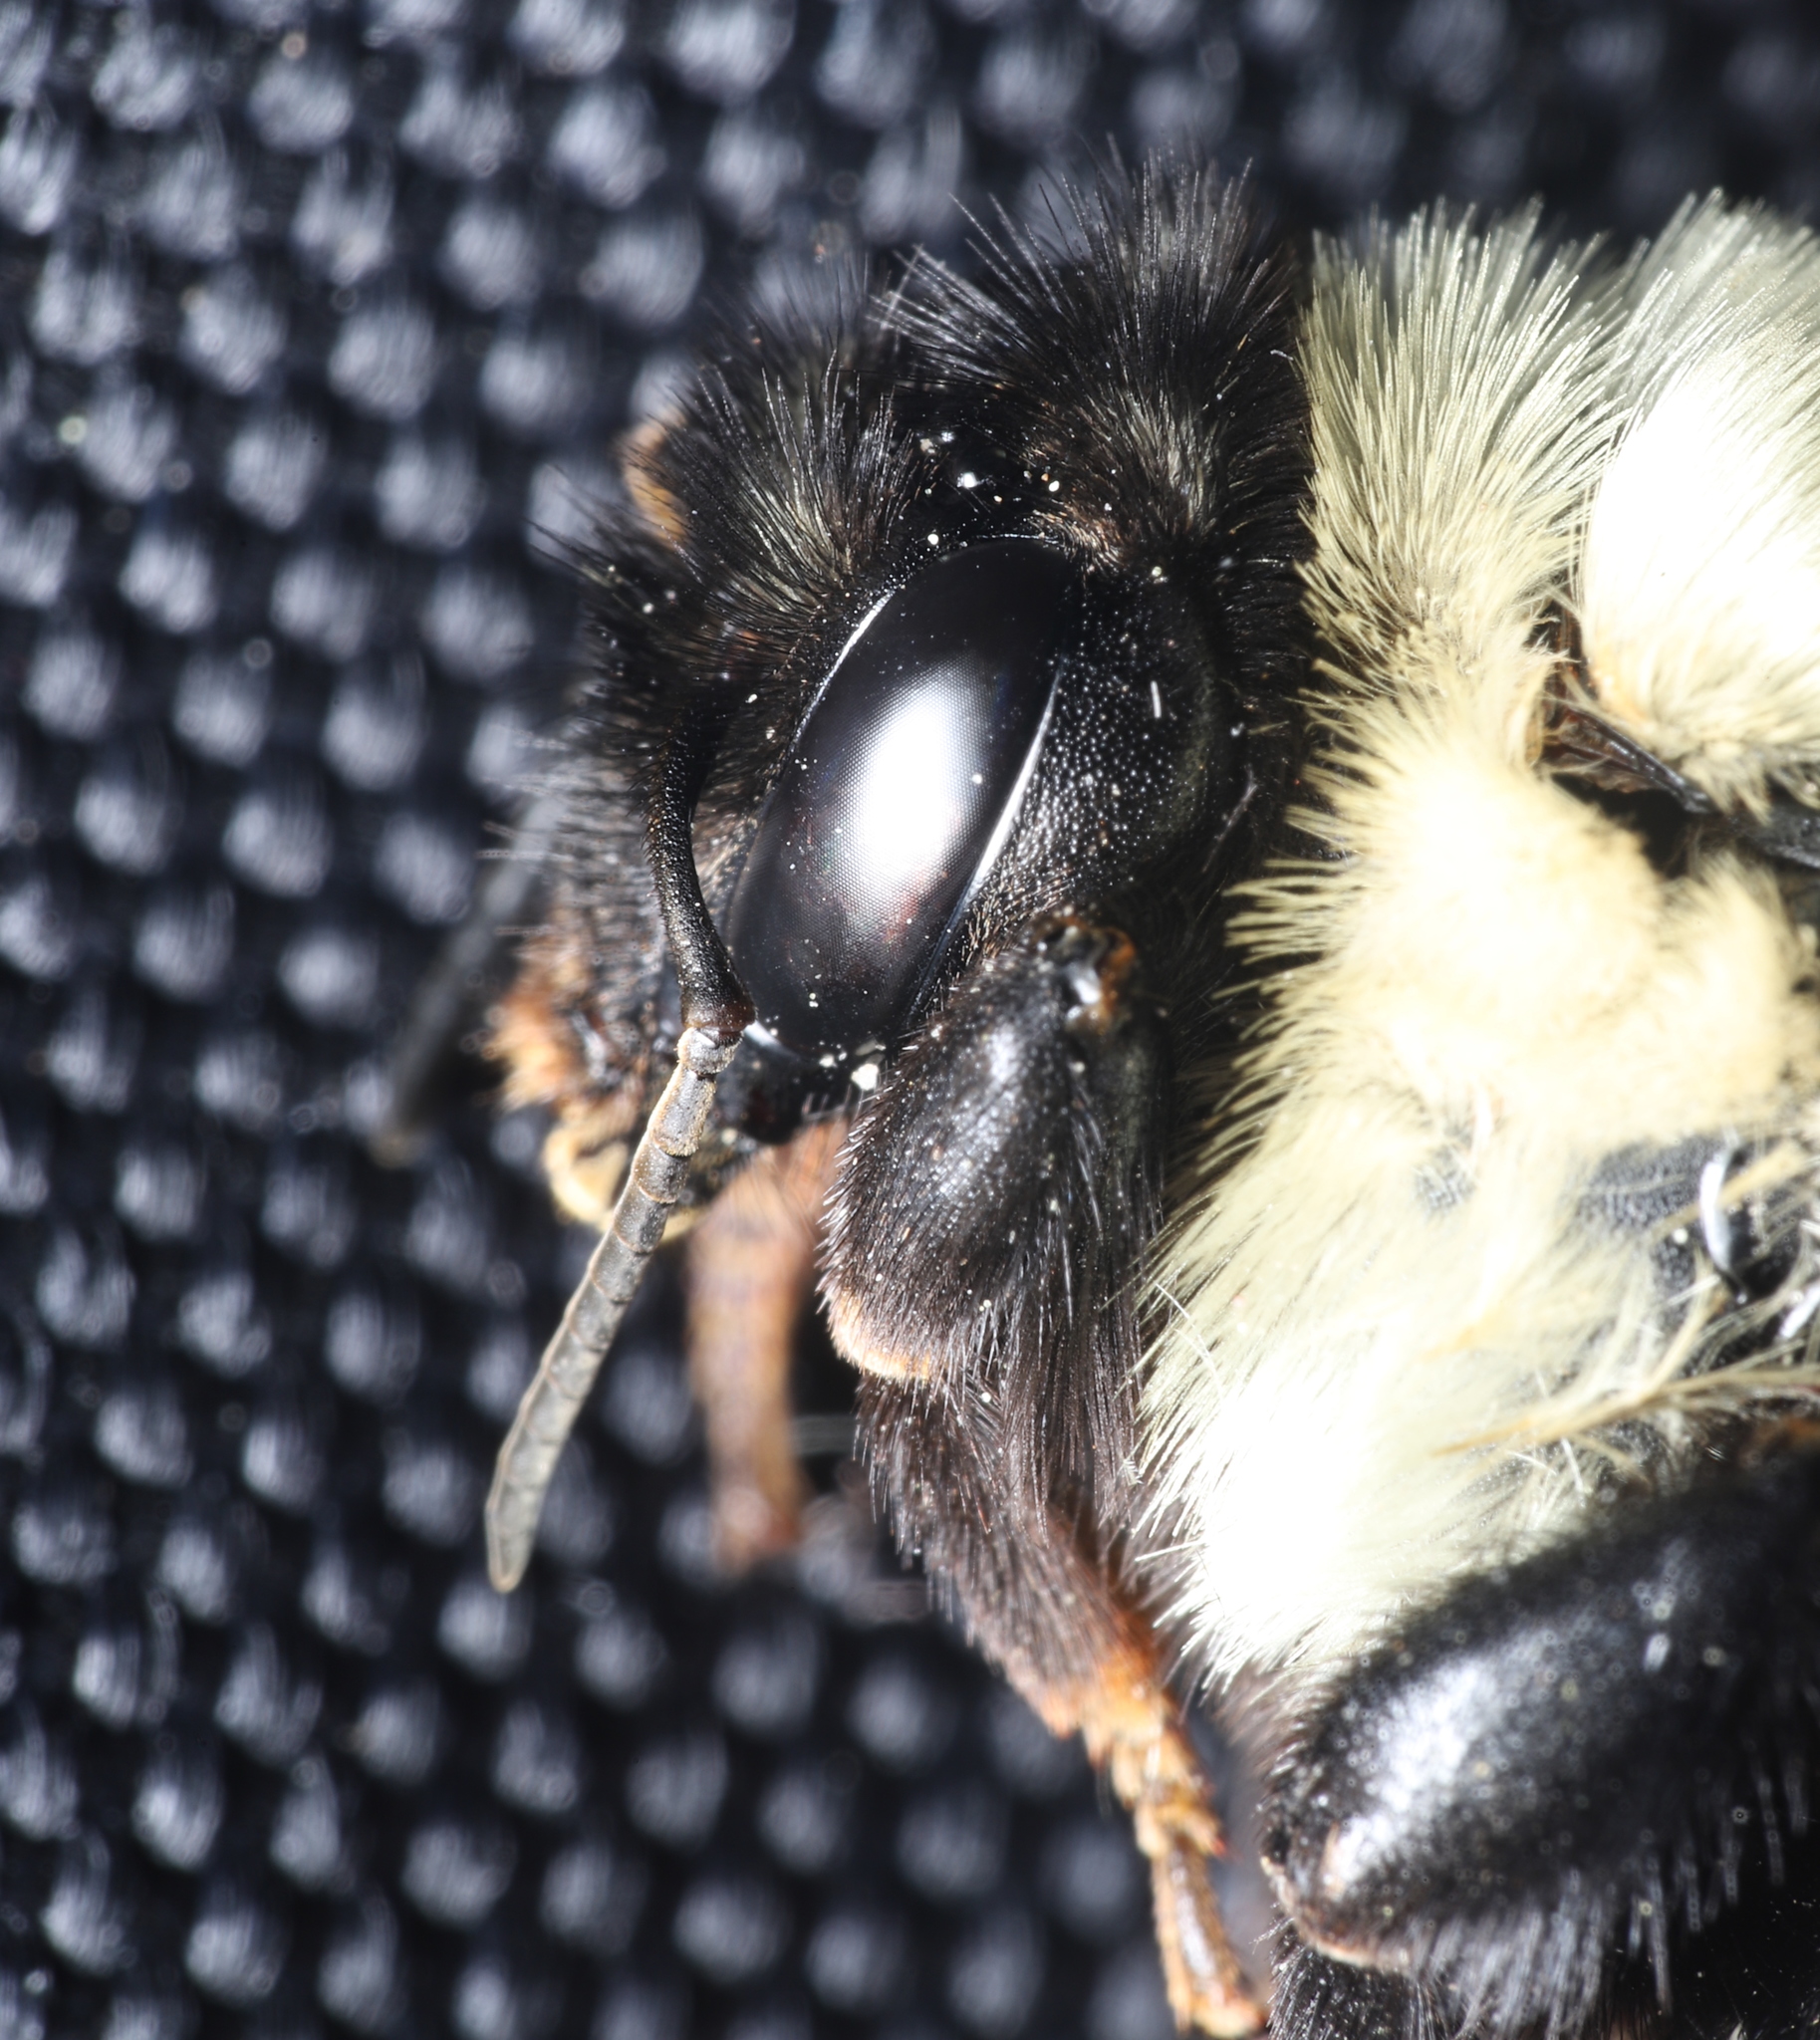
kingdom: Animalia
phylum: Arthropoda
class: Insecta
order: Hymenoptera
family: Apidae
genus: Bombus
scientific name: Bombus griseocollis
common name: Brown-belted bumble bee
